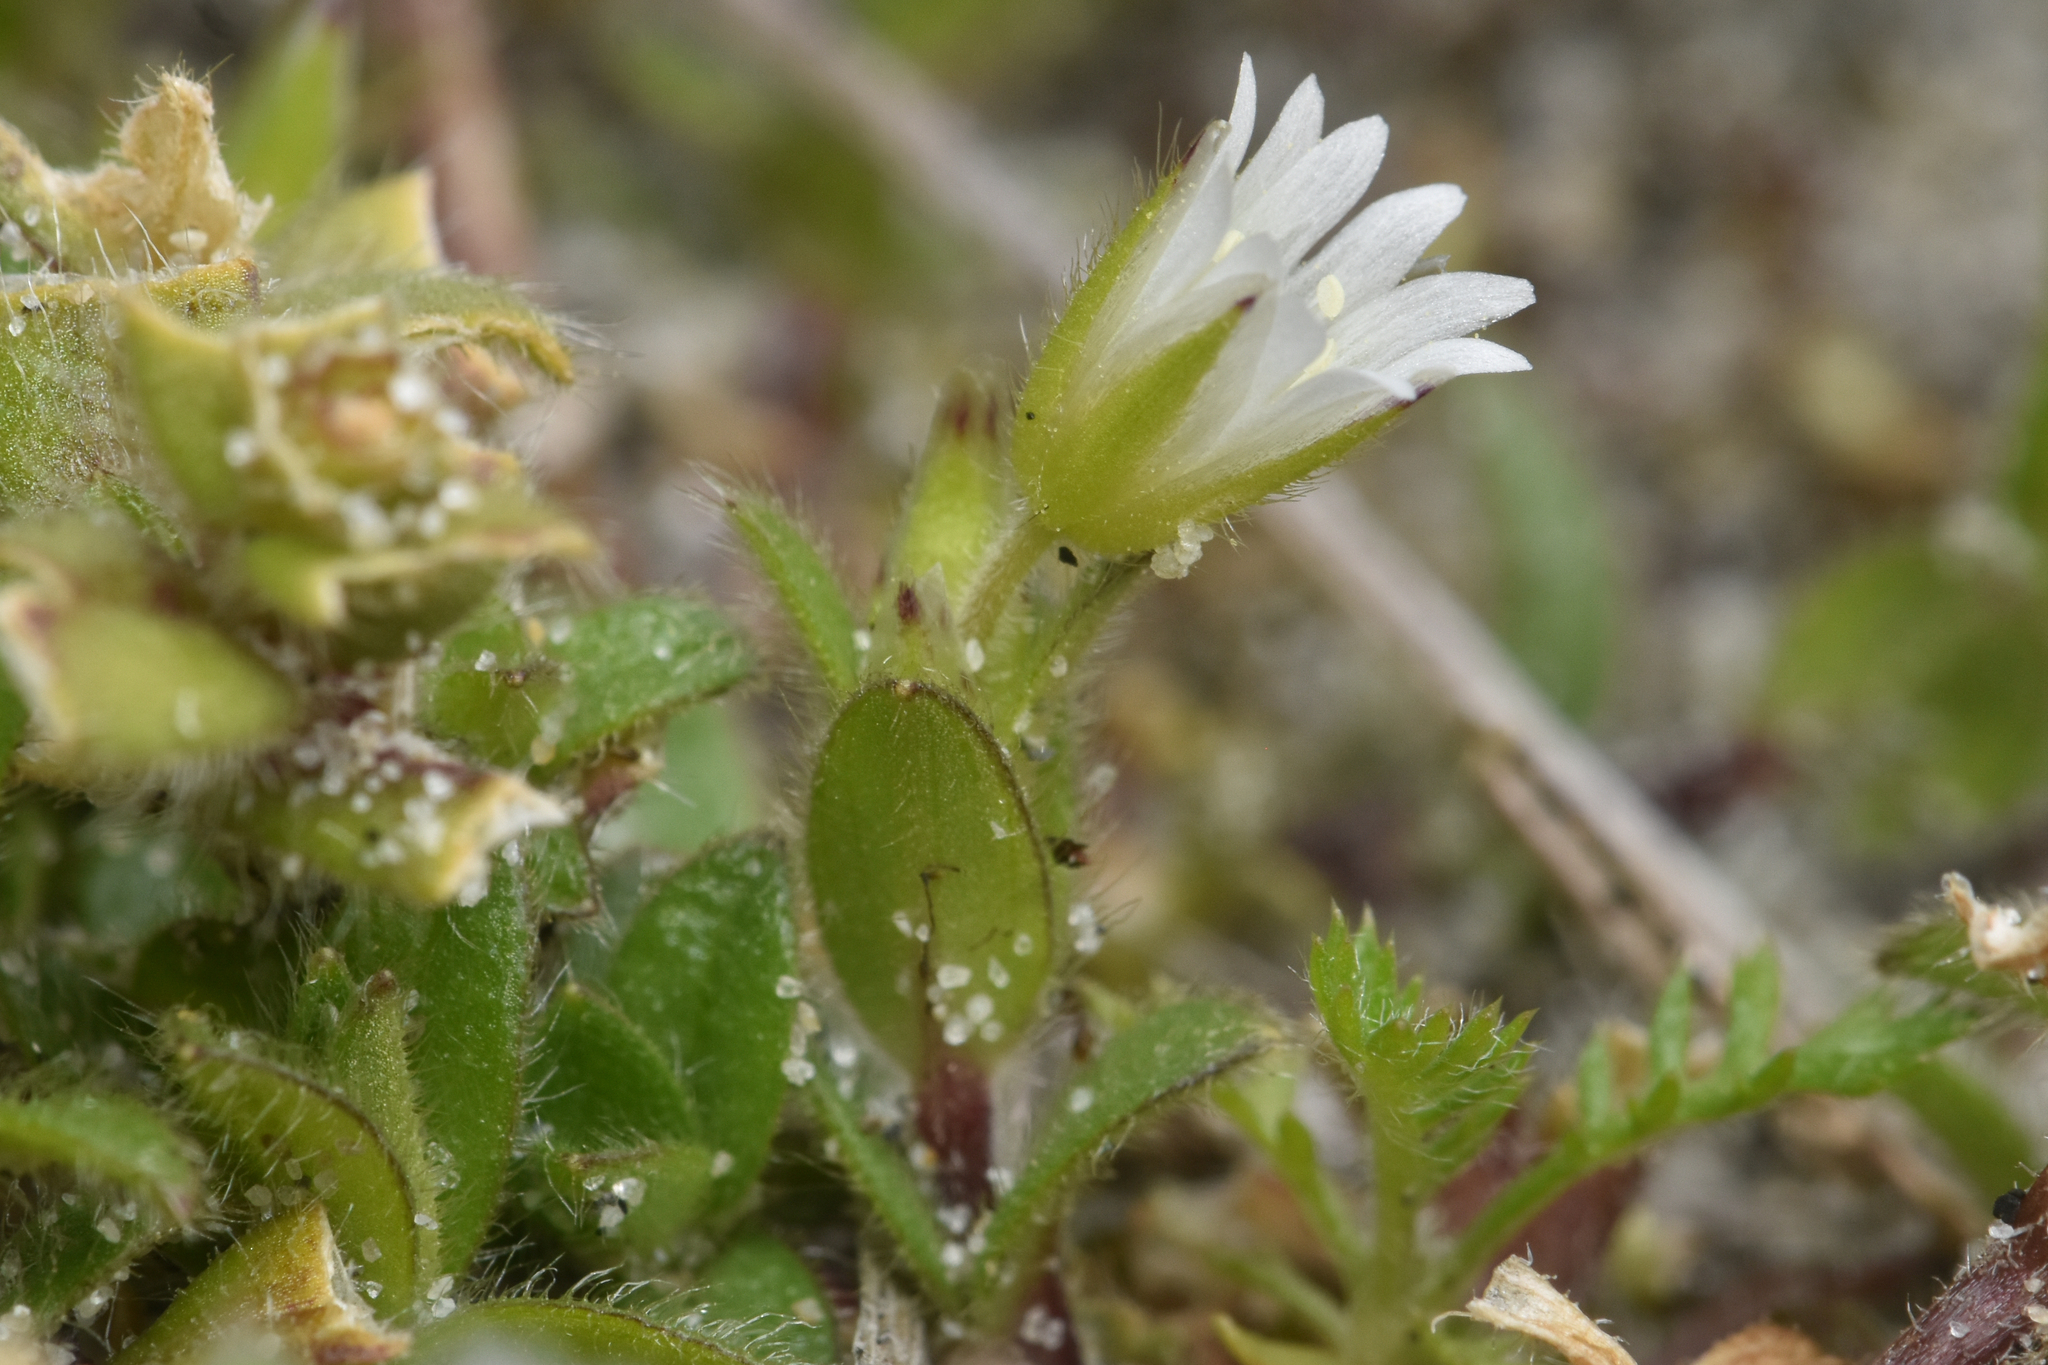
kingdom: Plantae
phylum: Tracheophyta
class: Magnoliopsida
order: Caryophyllales
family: Caryophyllaceae
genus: Cerastium
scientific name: Cerastium fontanum
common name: Common mouse-ear
